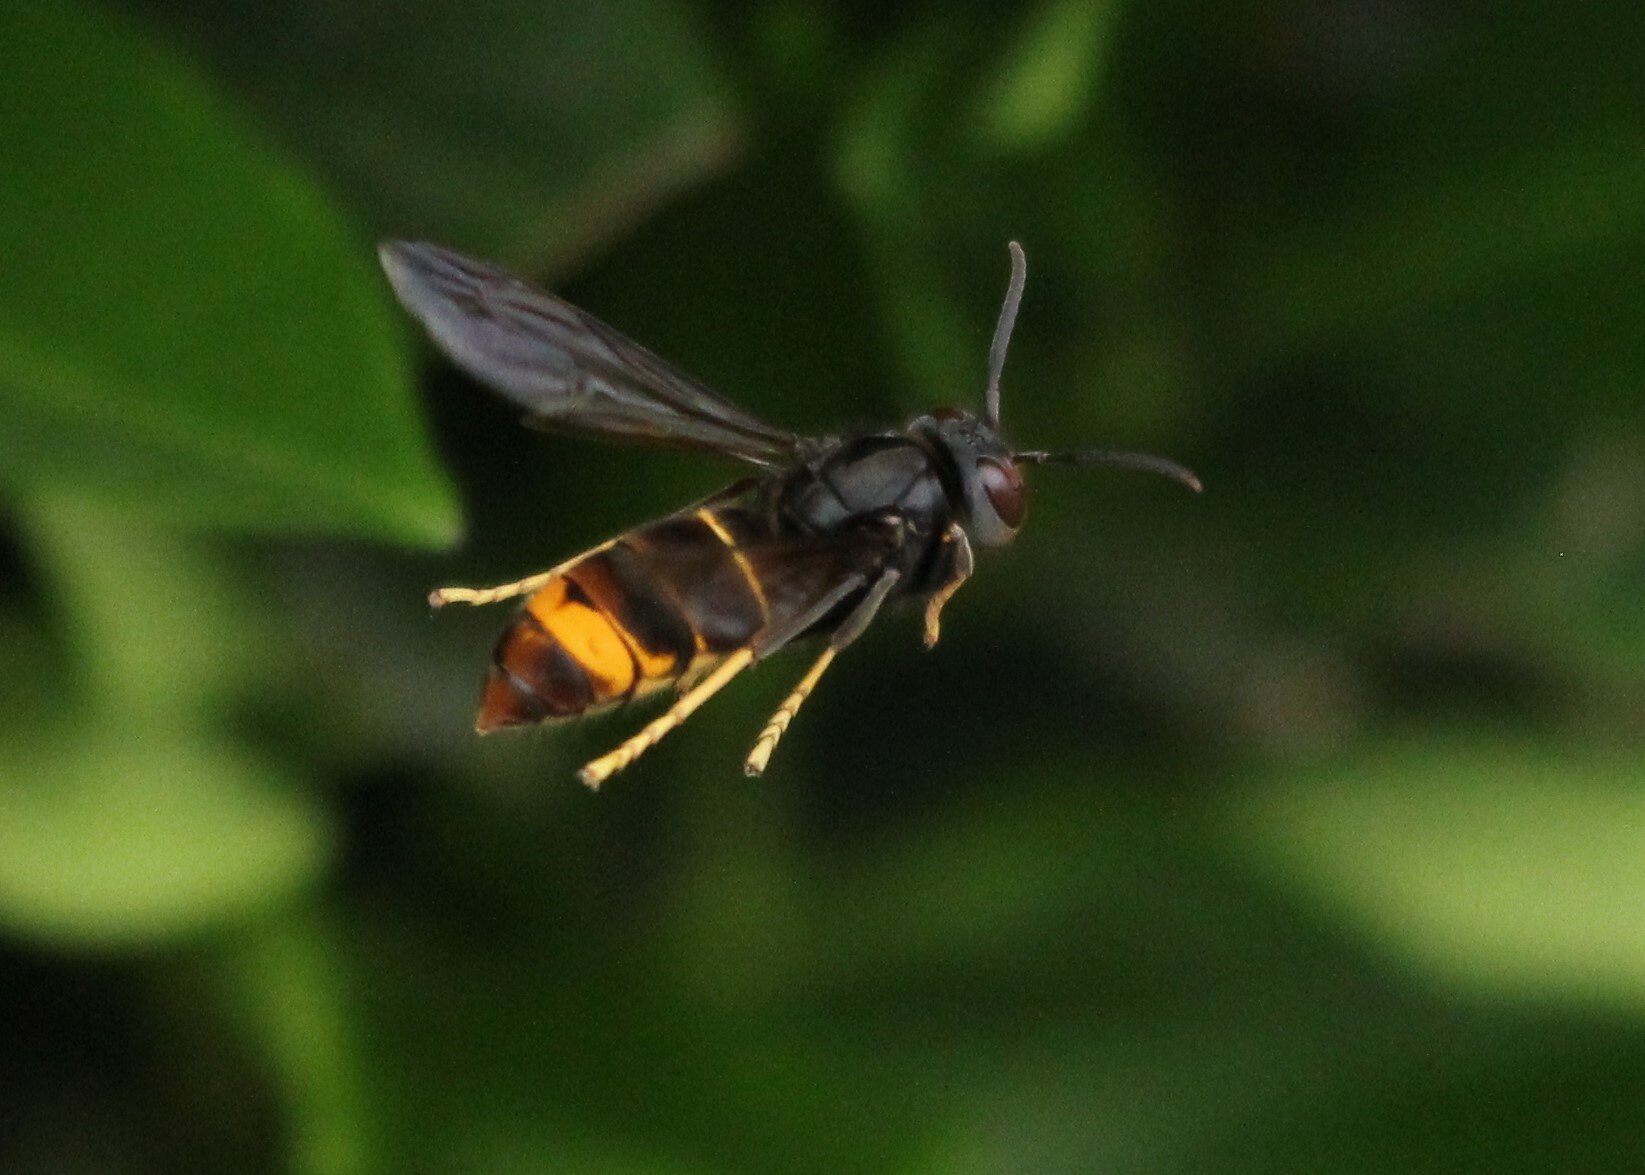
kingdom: Animalia
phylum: Arthropoda
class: Insecta
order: Hymenoptera
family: Vespidae
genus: Vespa
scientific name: Vespa velutina
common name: Asian hornet
